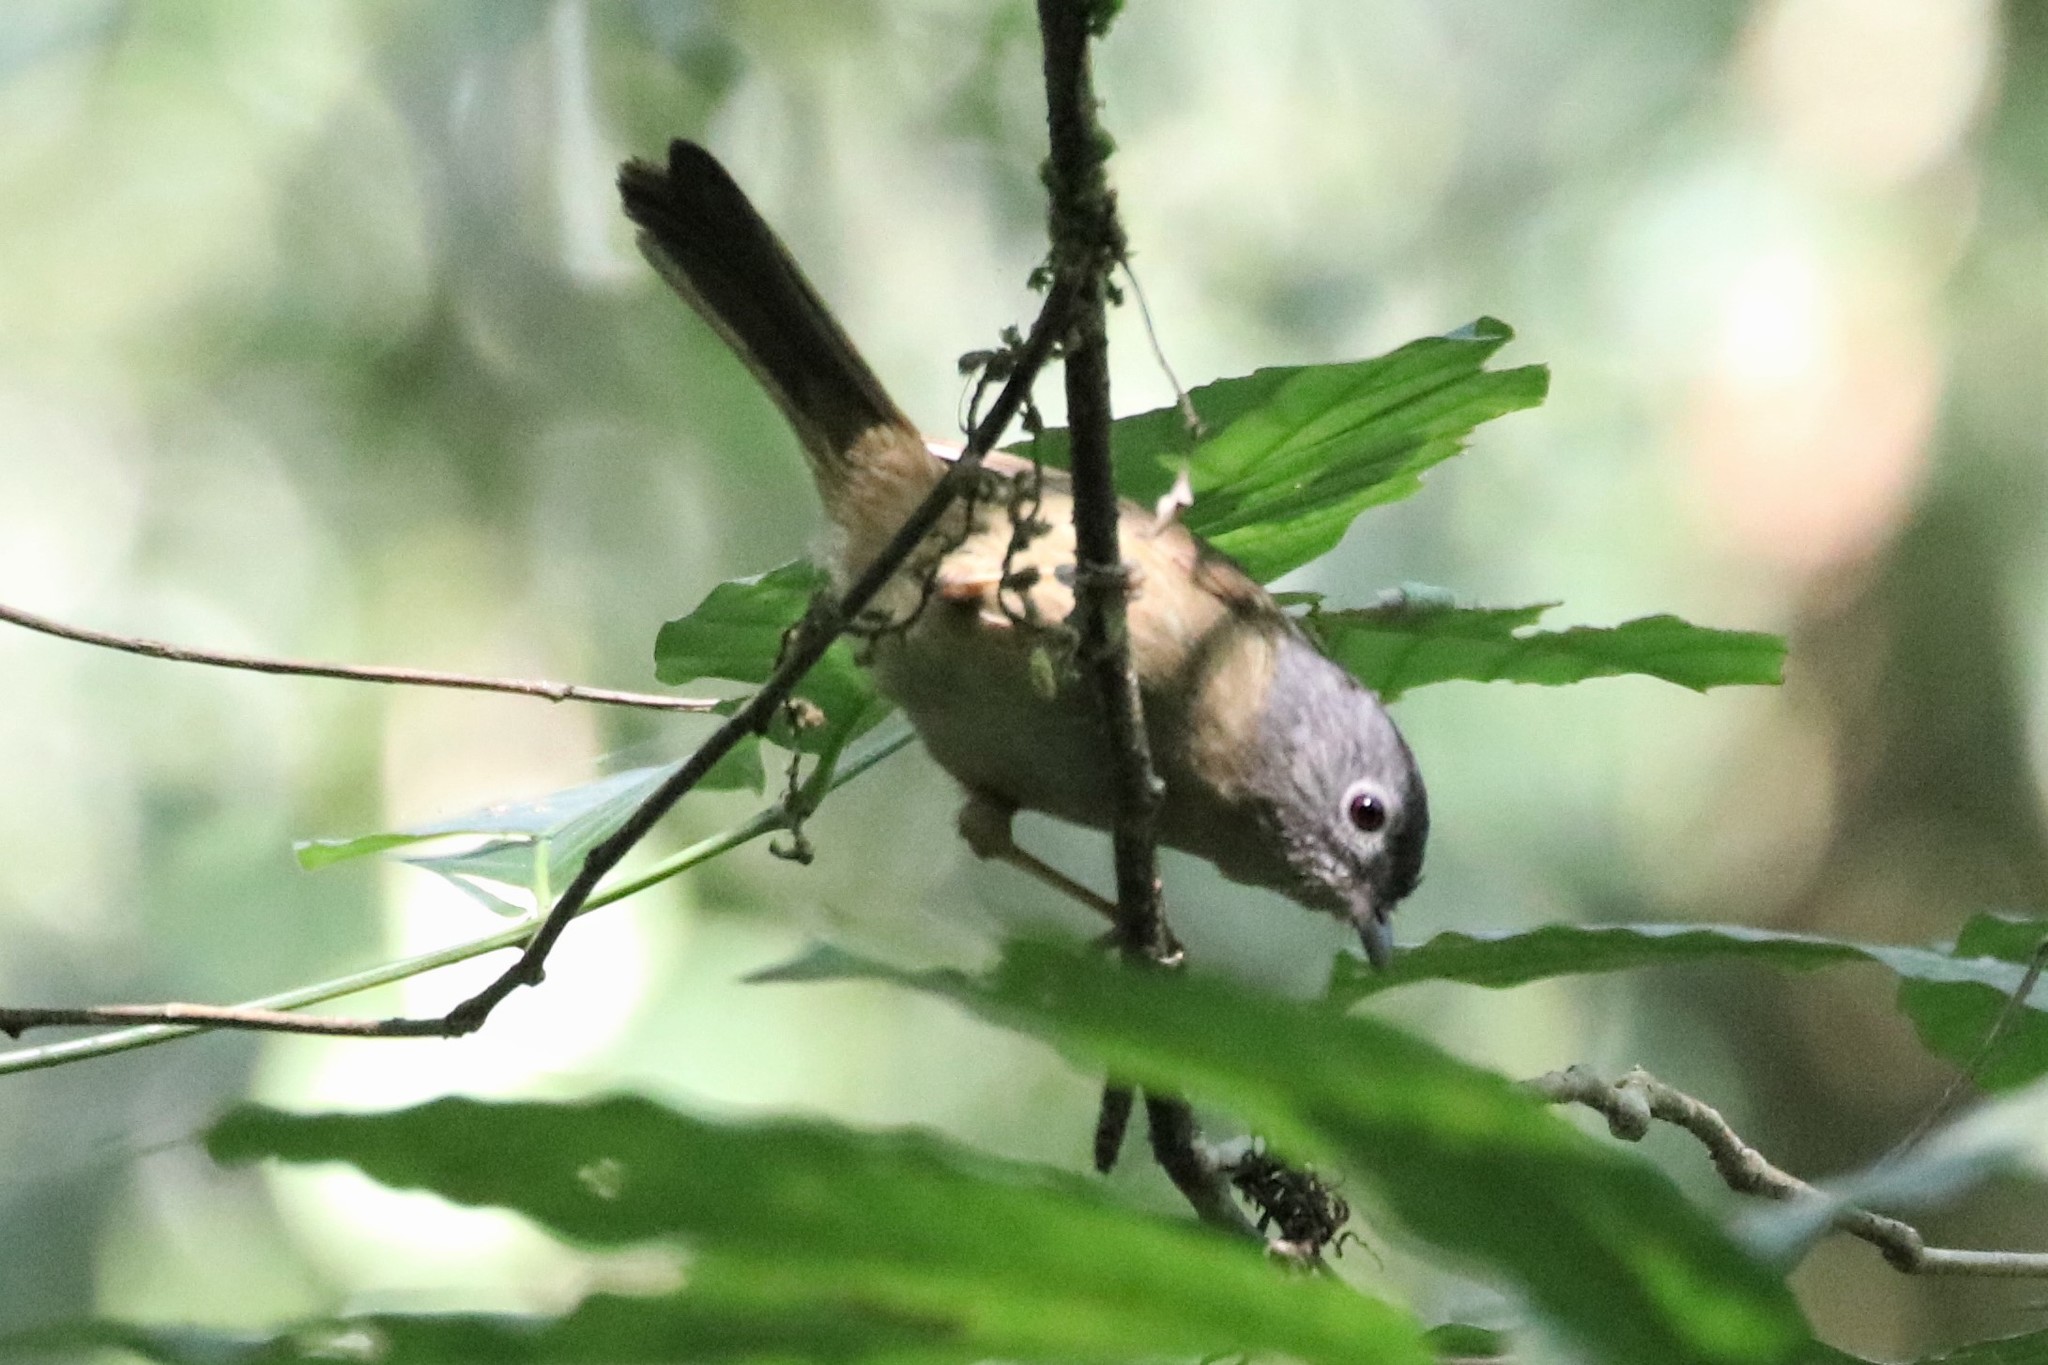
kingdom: Animalia
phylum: Chordata
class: Aves
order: Passeriformes
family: Pellorneidae
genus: Alcippe
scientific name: Alcippe fratercula
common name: Yunnan fulvetta
